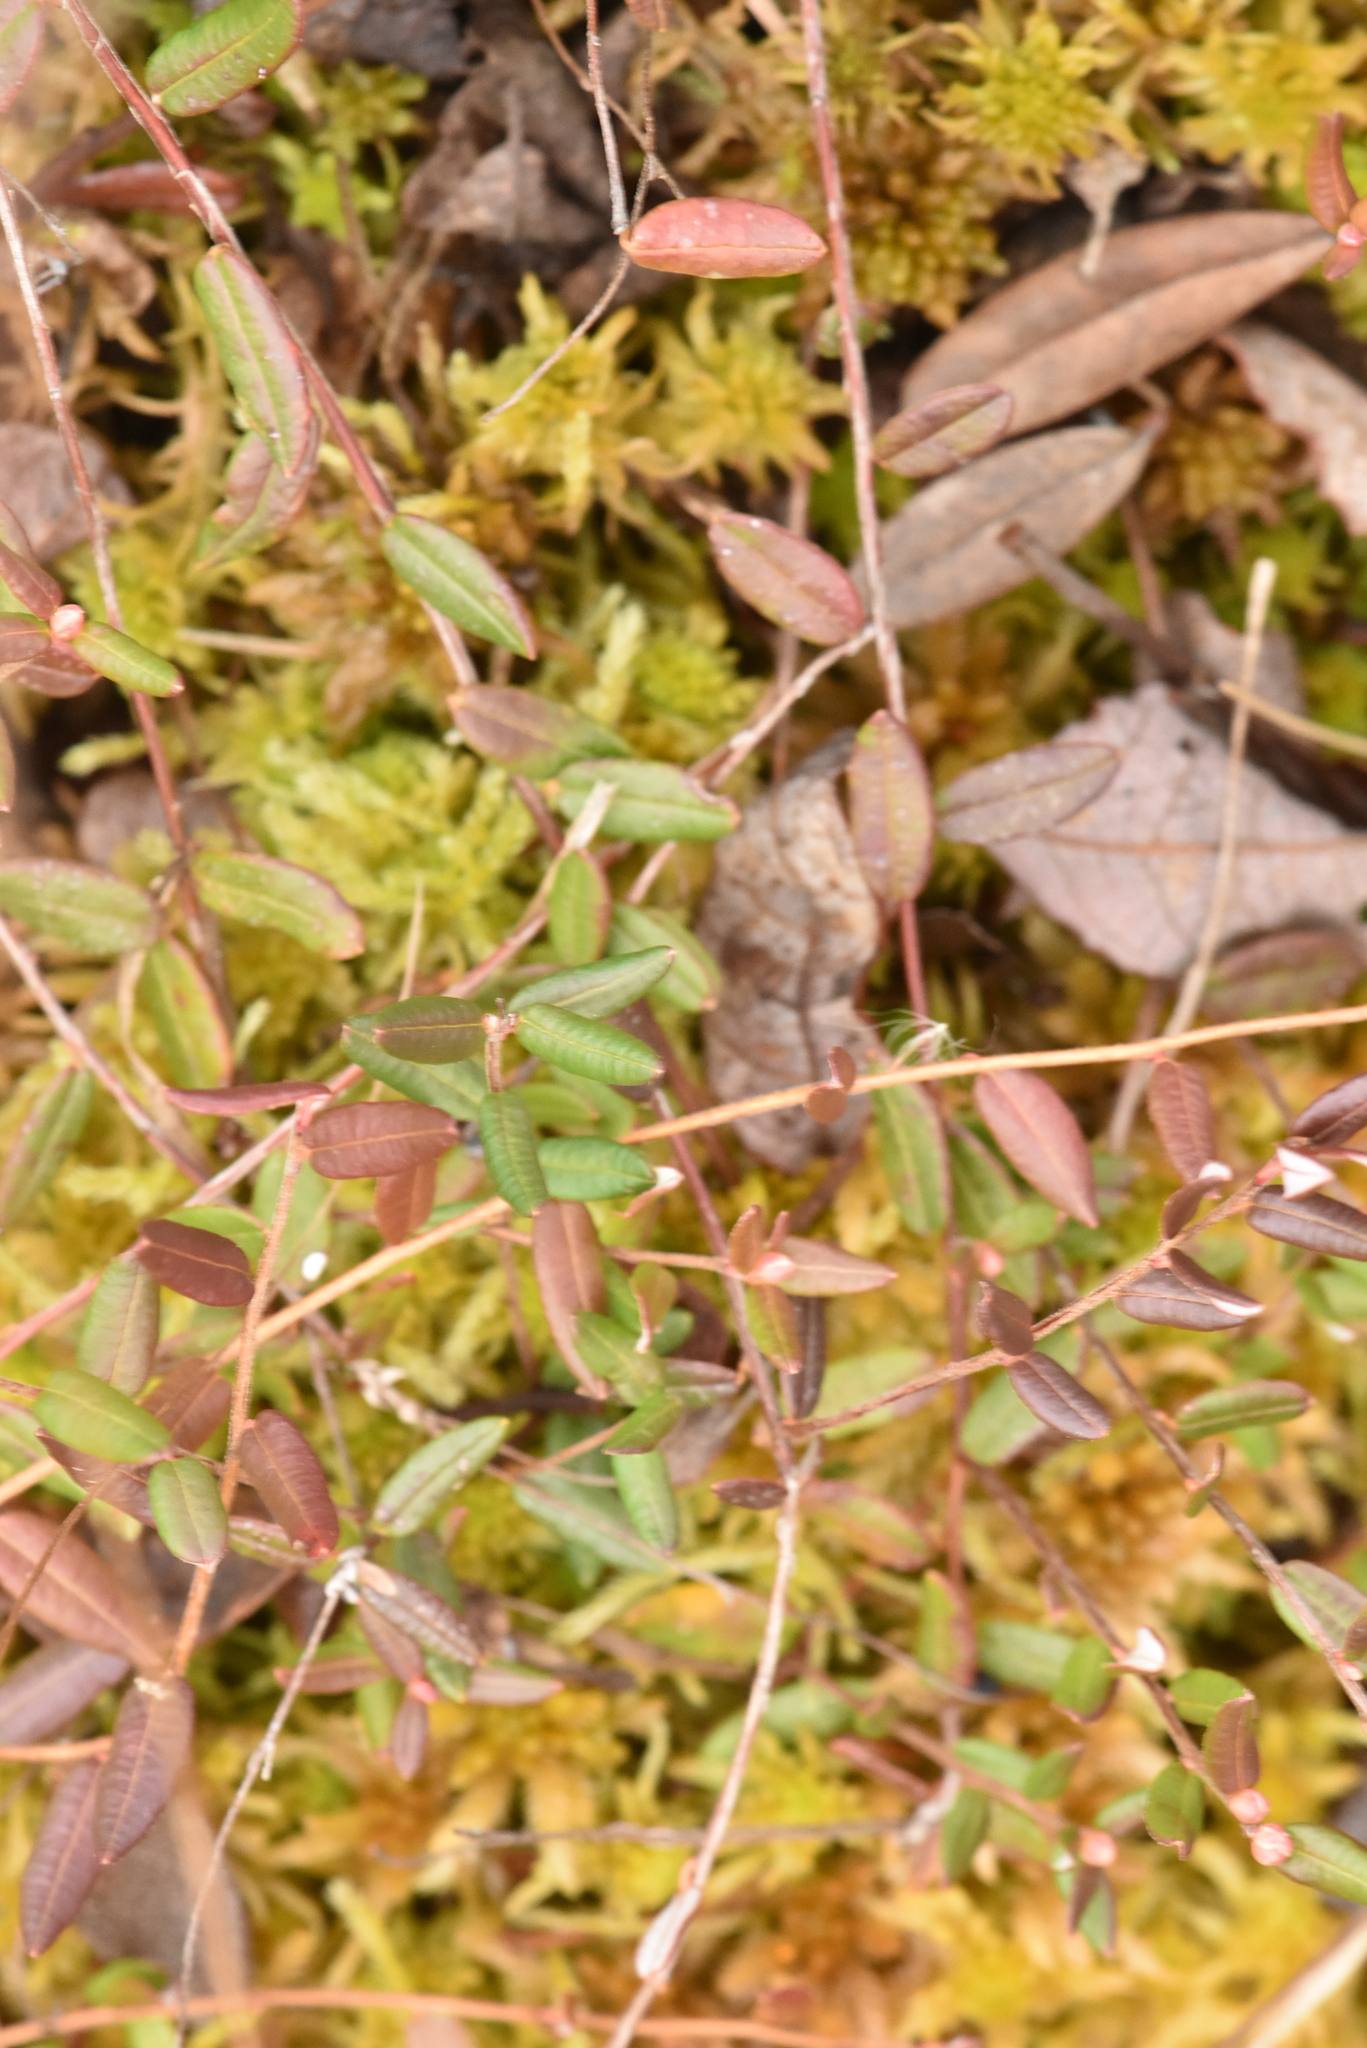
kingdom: Plantae
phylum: Tracheophyta
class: Magnoliopsida
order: Ericales
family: Ericaceae
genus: Vaccinium
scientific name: Vaccinium oxycoccos
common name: Cranberry
